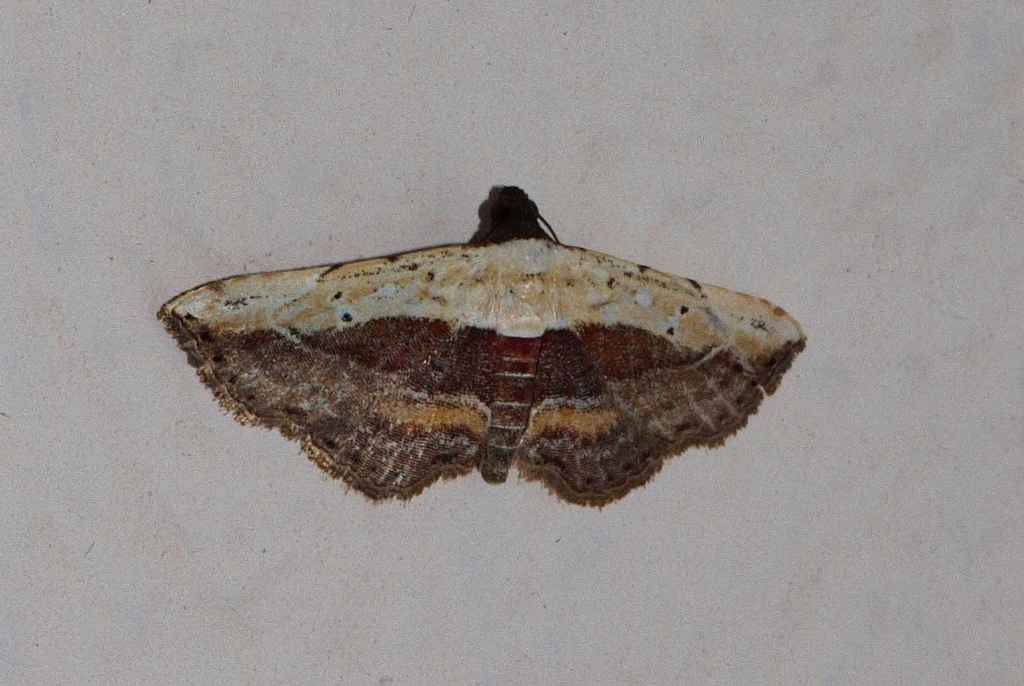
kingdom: Animalia
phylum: Arthropoda
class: Insecta
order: Lepidoptera
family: Erebidae
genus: Grammodes
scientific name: Grammodes latifera
